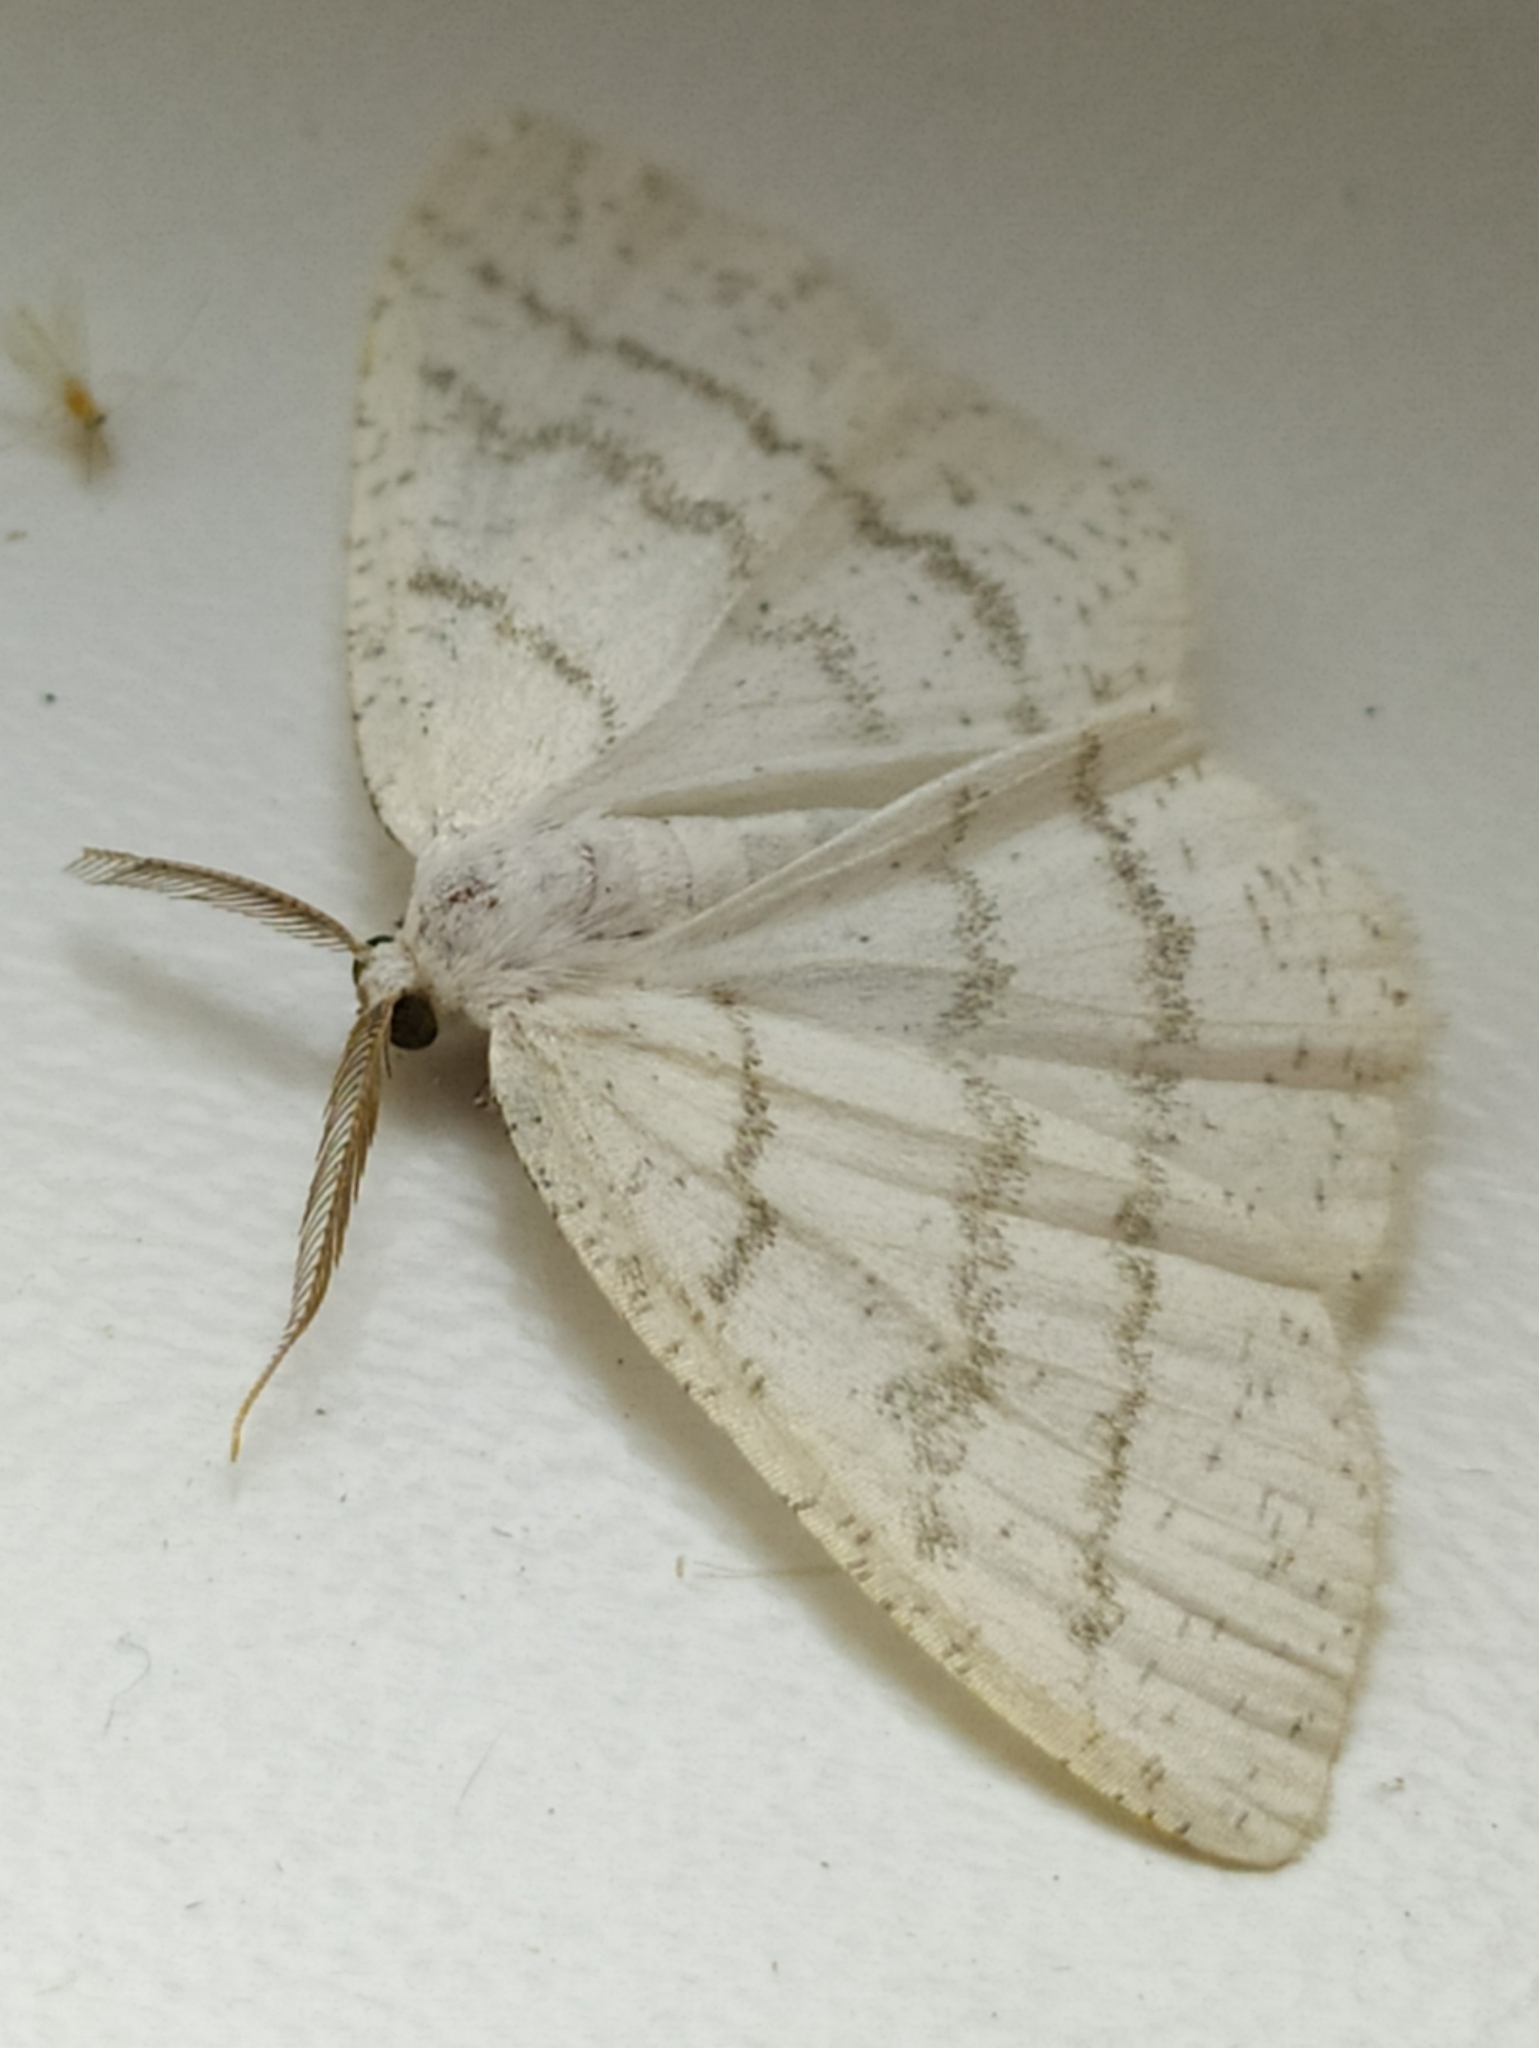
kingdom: Animalia
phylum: Arthropoda
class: Insecta
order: Lepidoptera
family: Geometridae
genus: Cabera
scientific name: Cabera pusaria
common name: Common white wave
